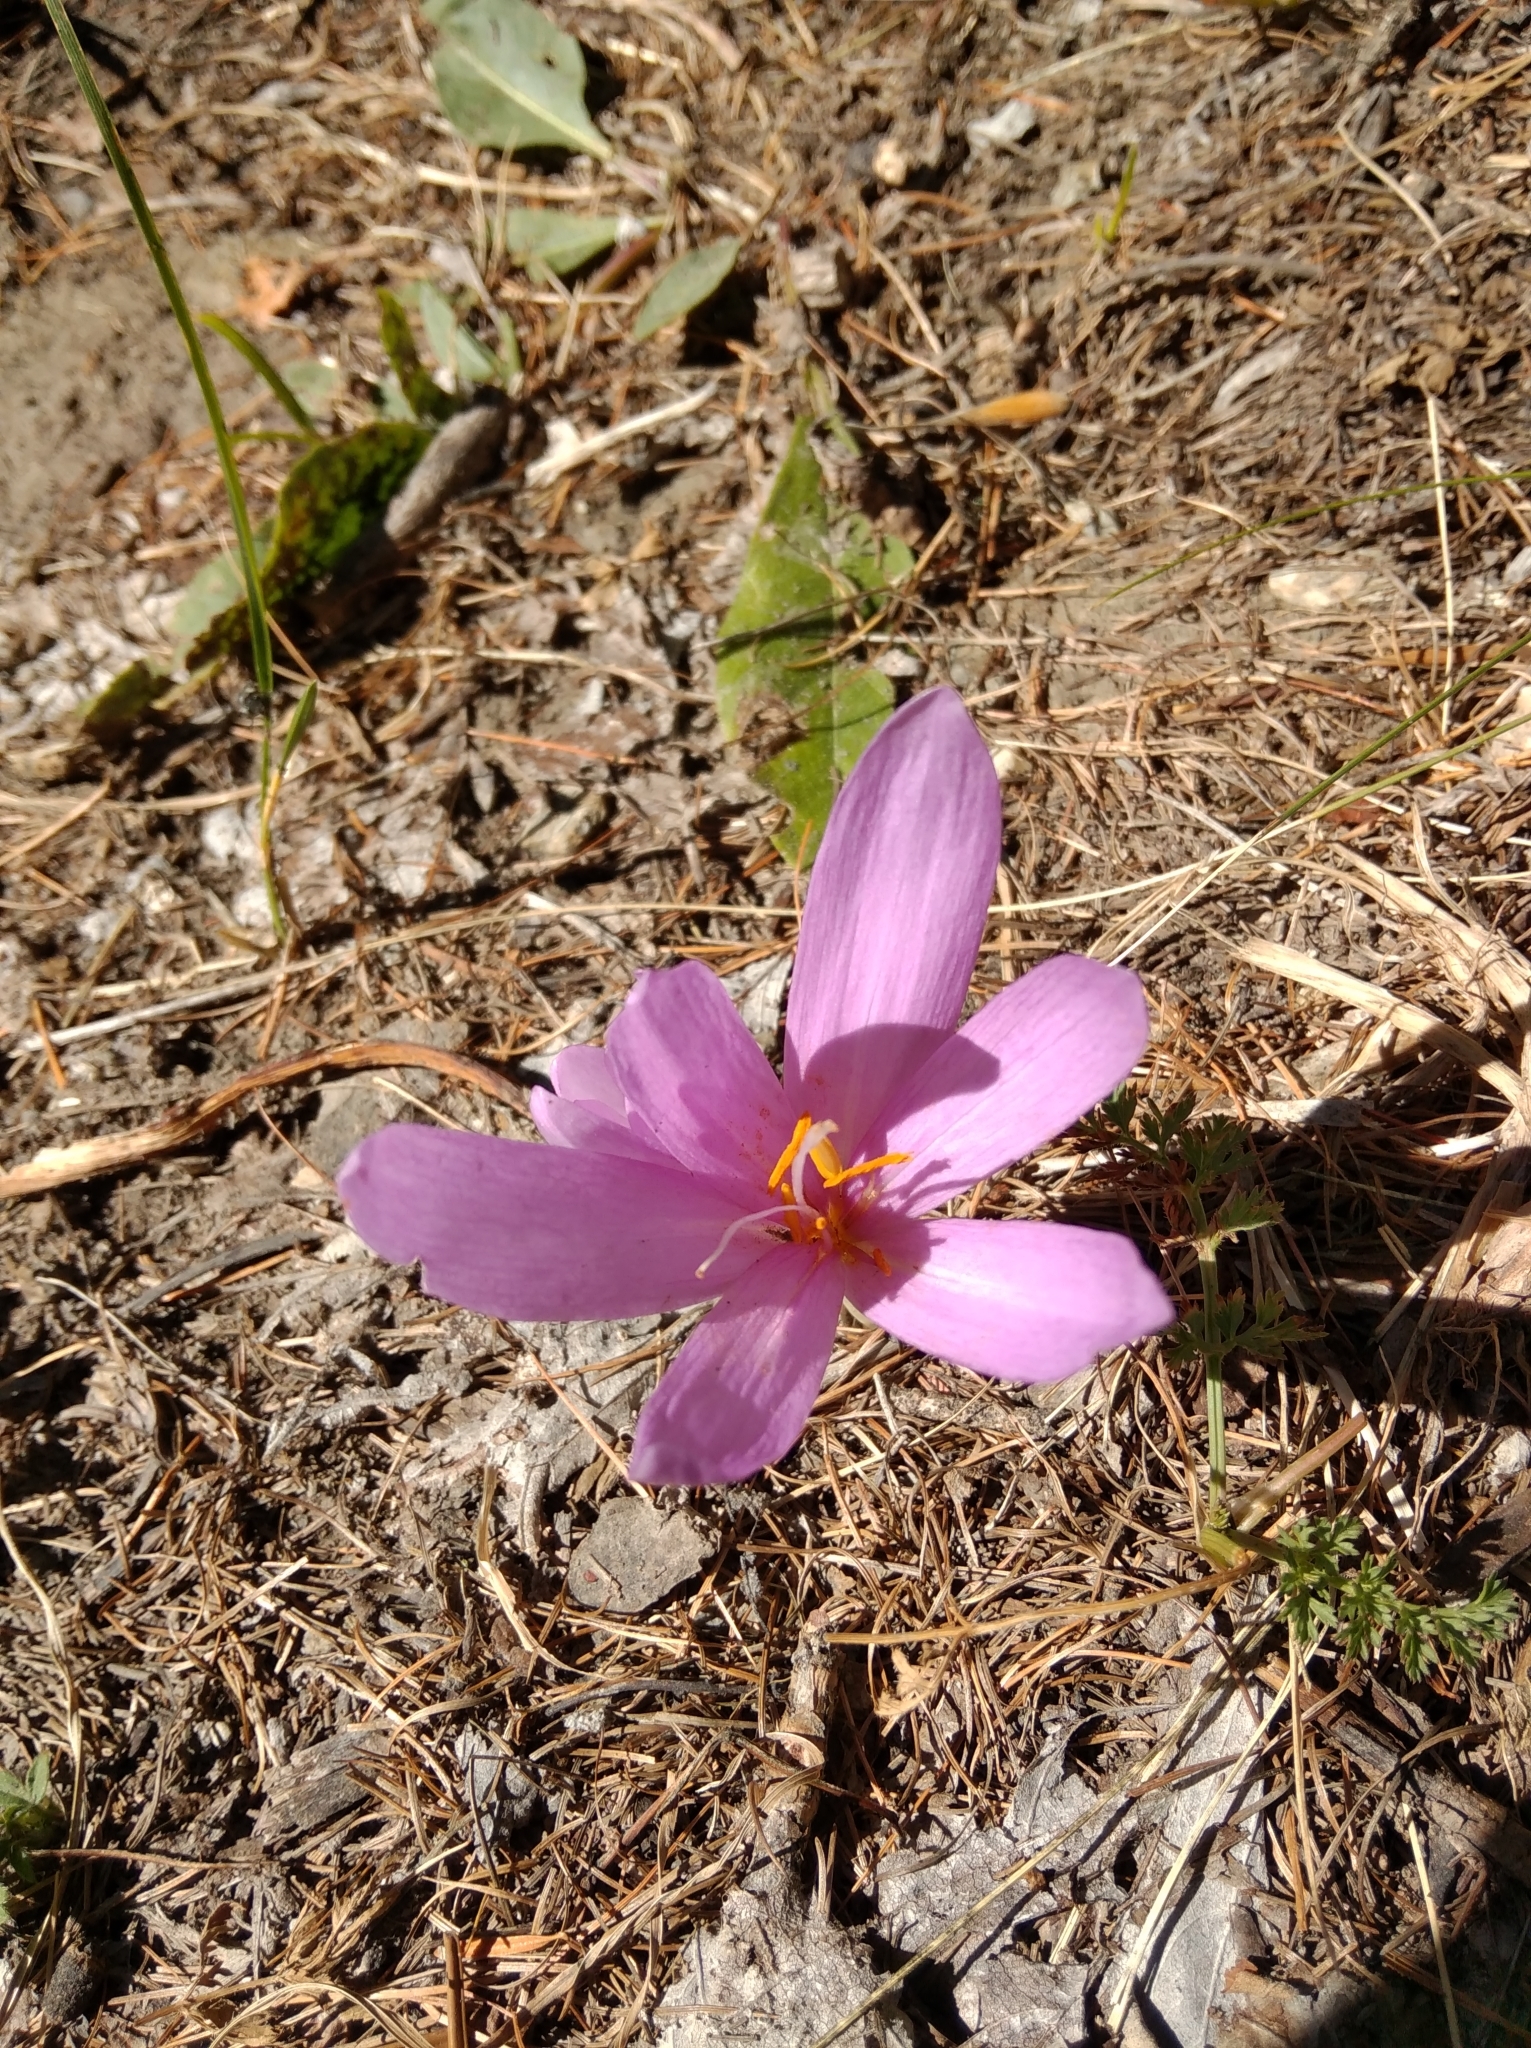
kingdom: Plantae
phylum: Tracheophyta
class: Liliopsida
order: Liliales
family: Colchicaceae
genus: Colchicum
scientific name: Colchicum autumnale
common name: Autumn crocus
